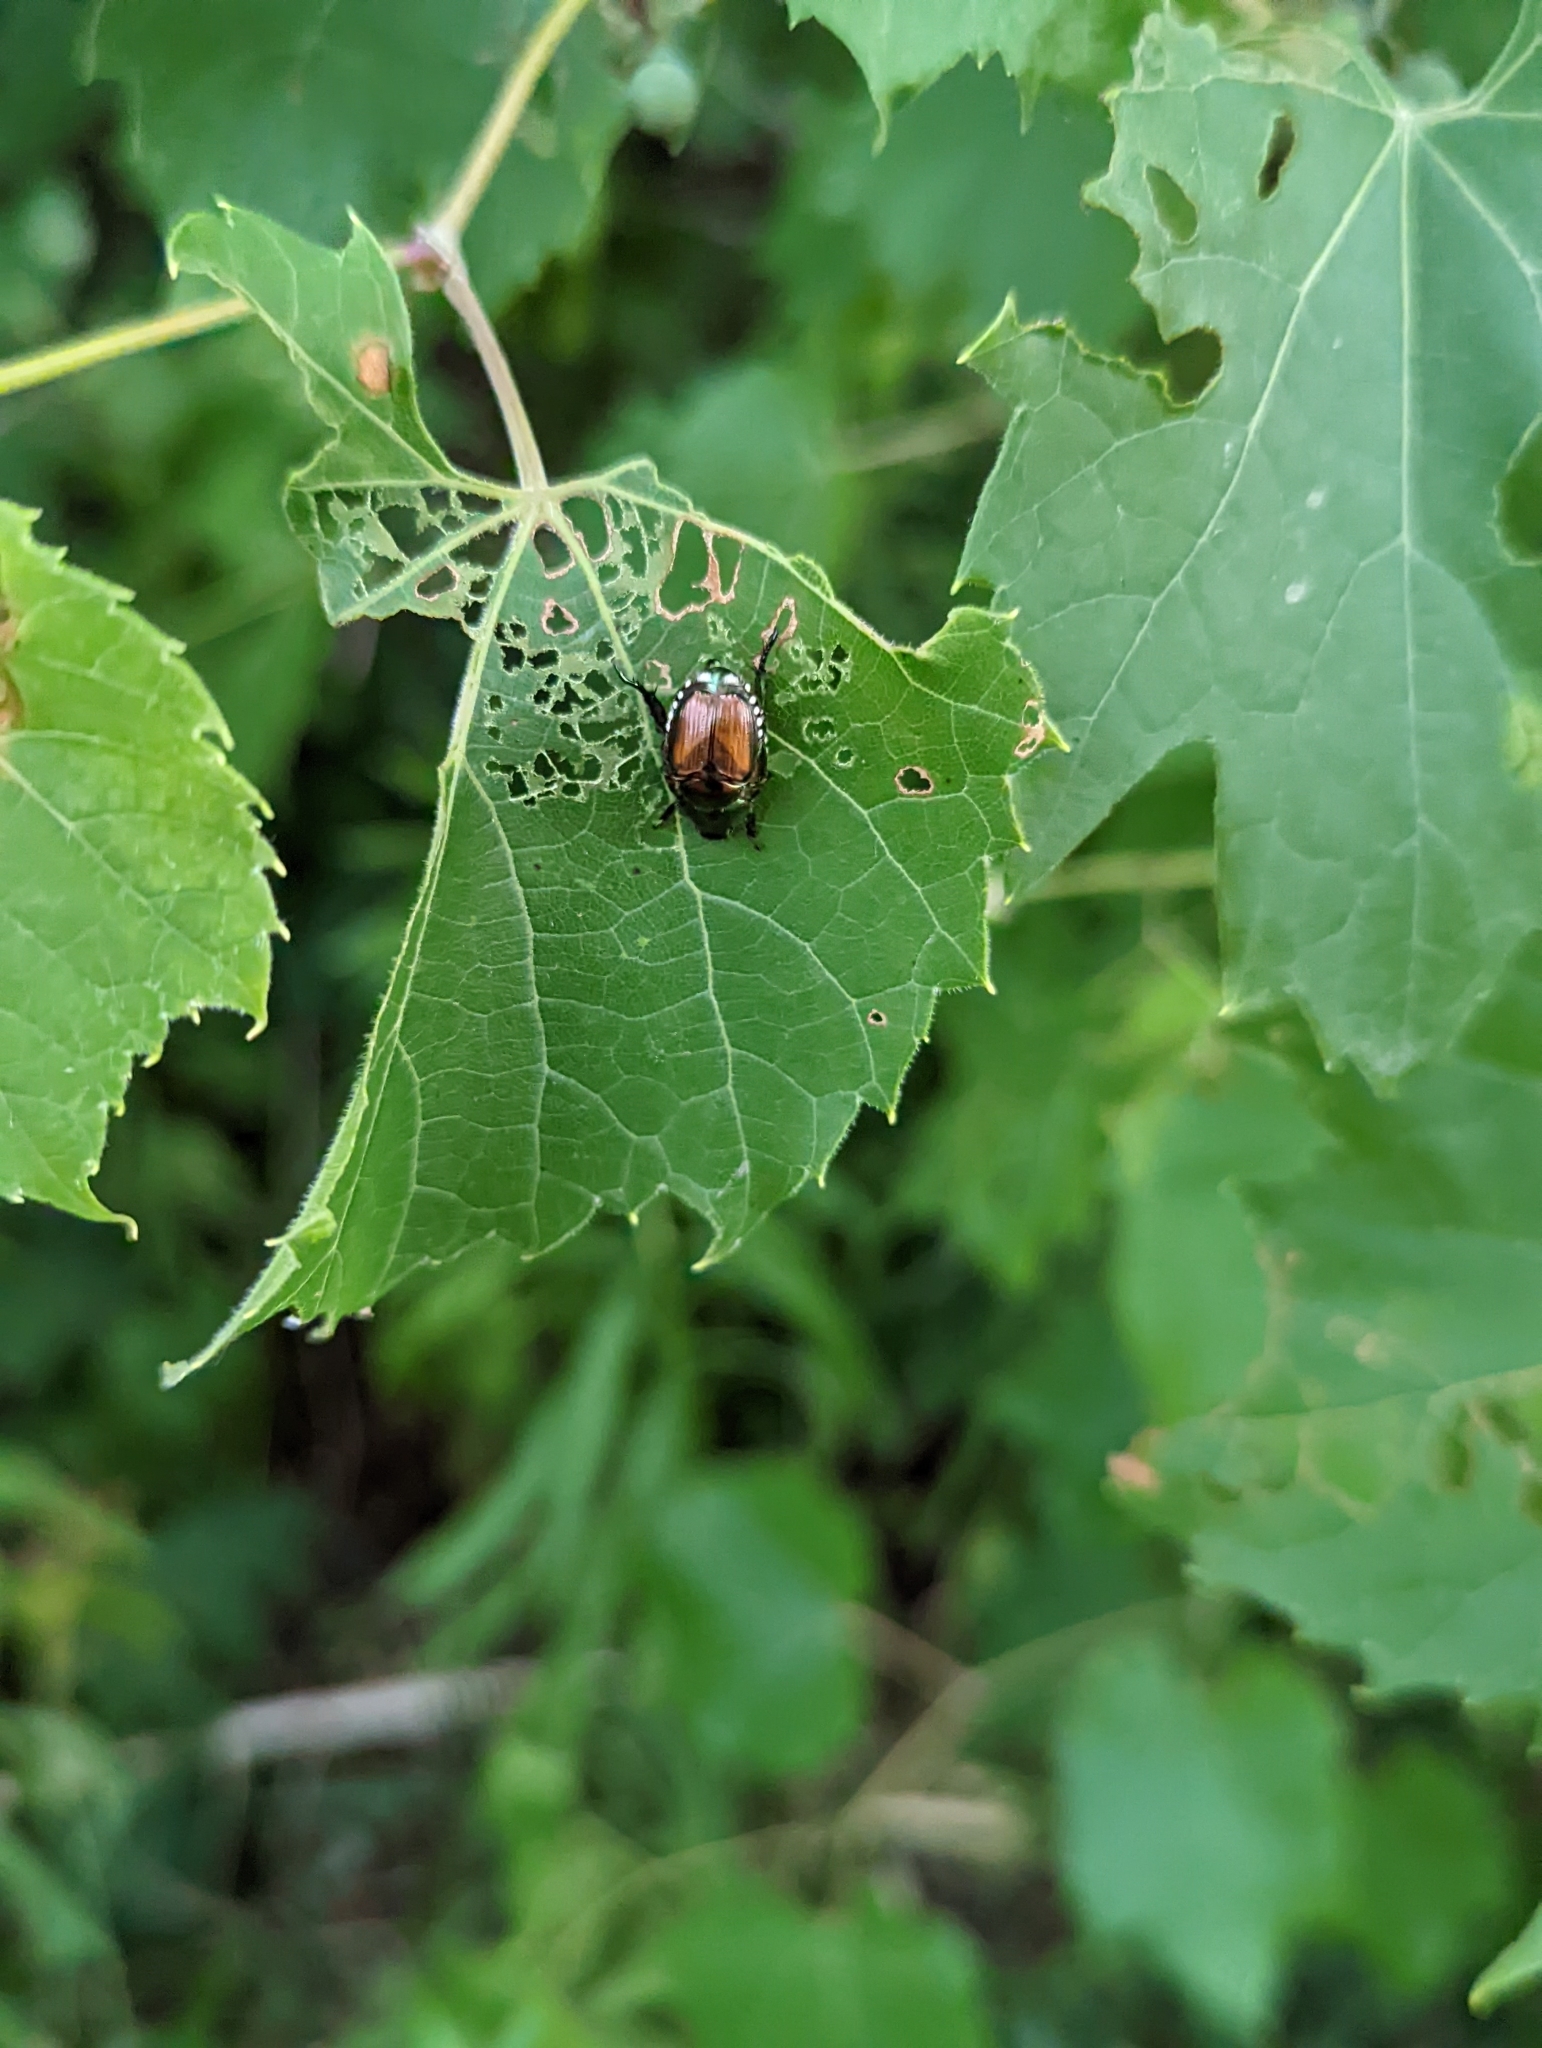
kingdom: Animalia
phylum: Arthropoda
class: Insecta
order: Coleoptera
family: Scarabaeidae
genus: Popillia
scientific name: Popillia japonica
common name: Japanese beetle
